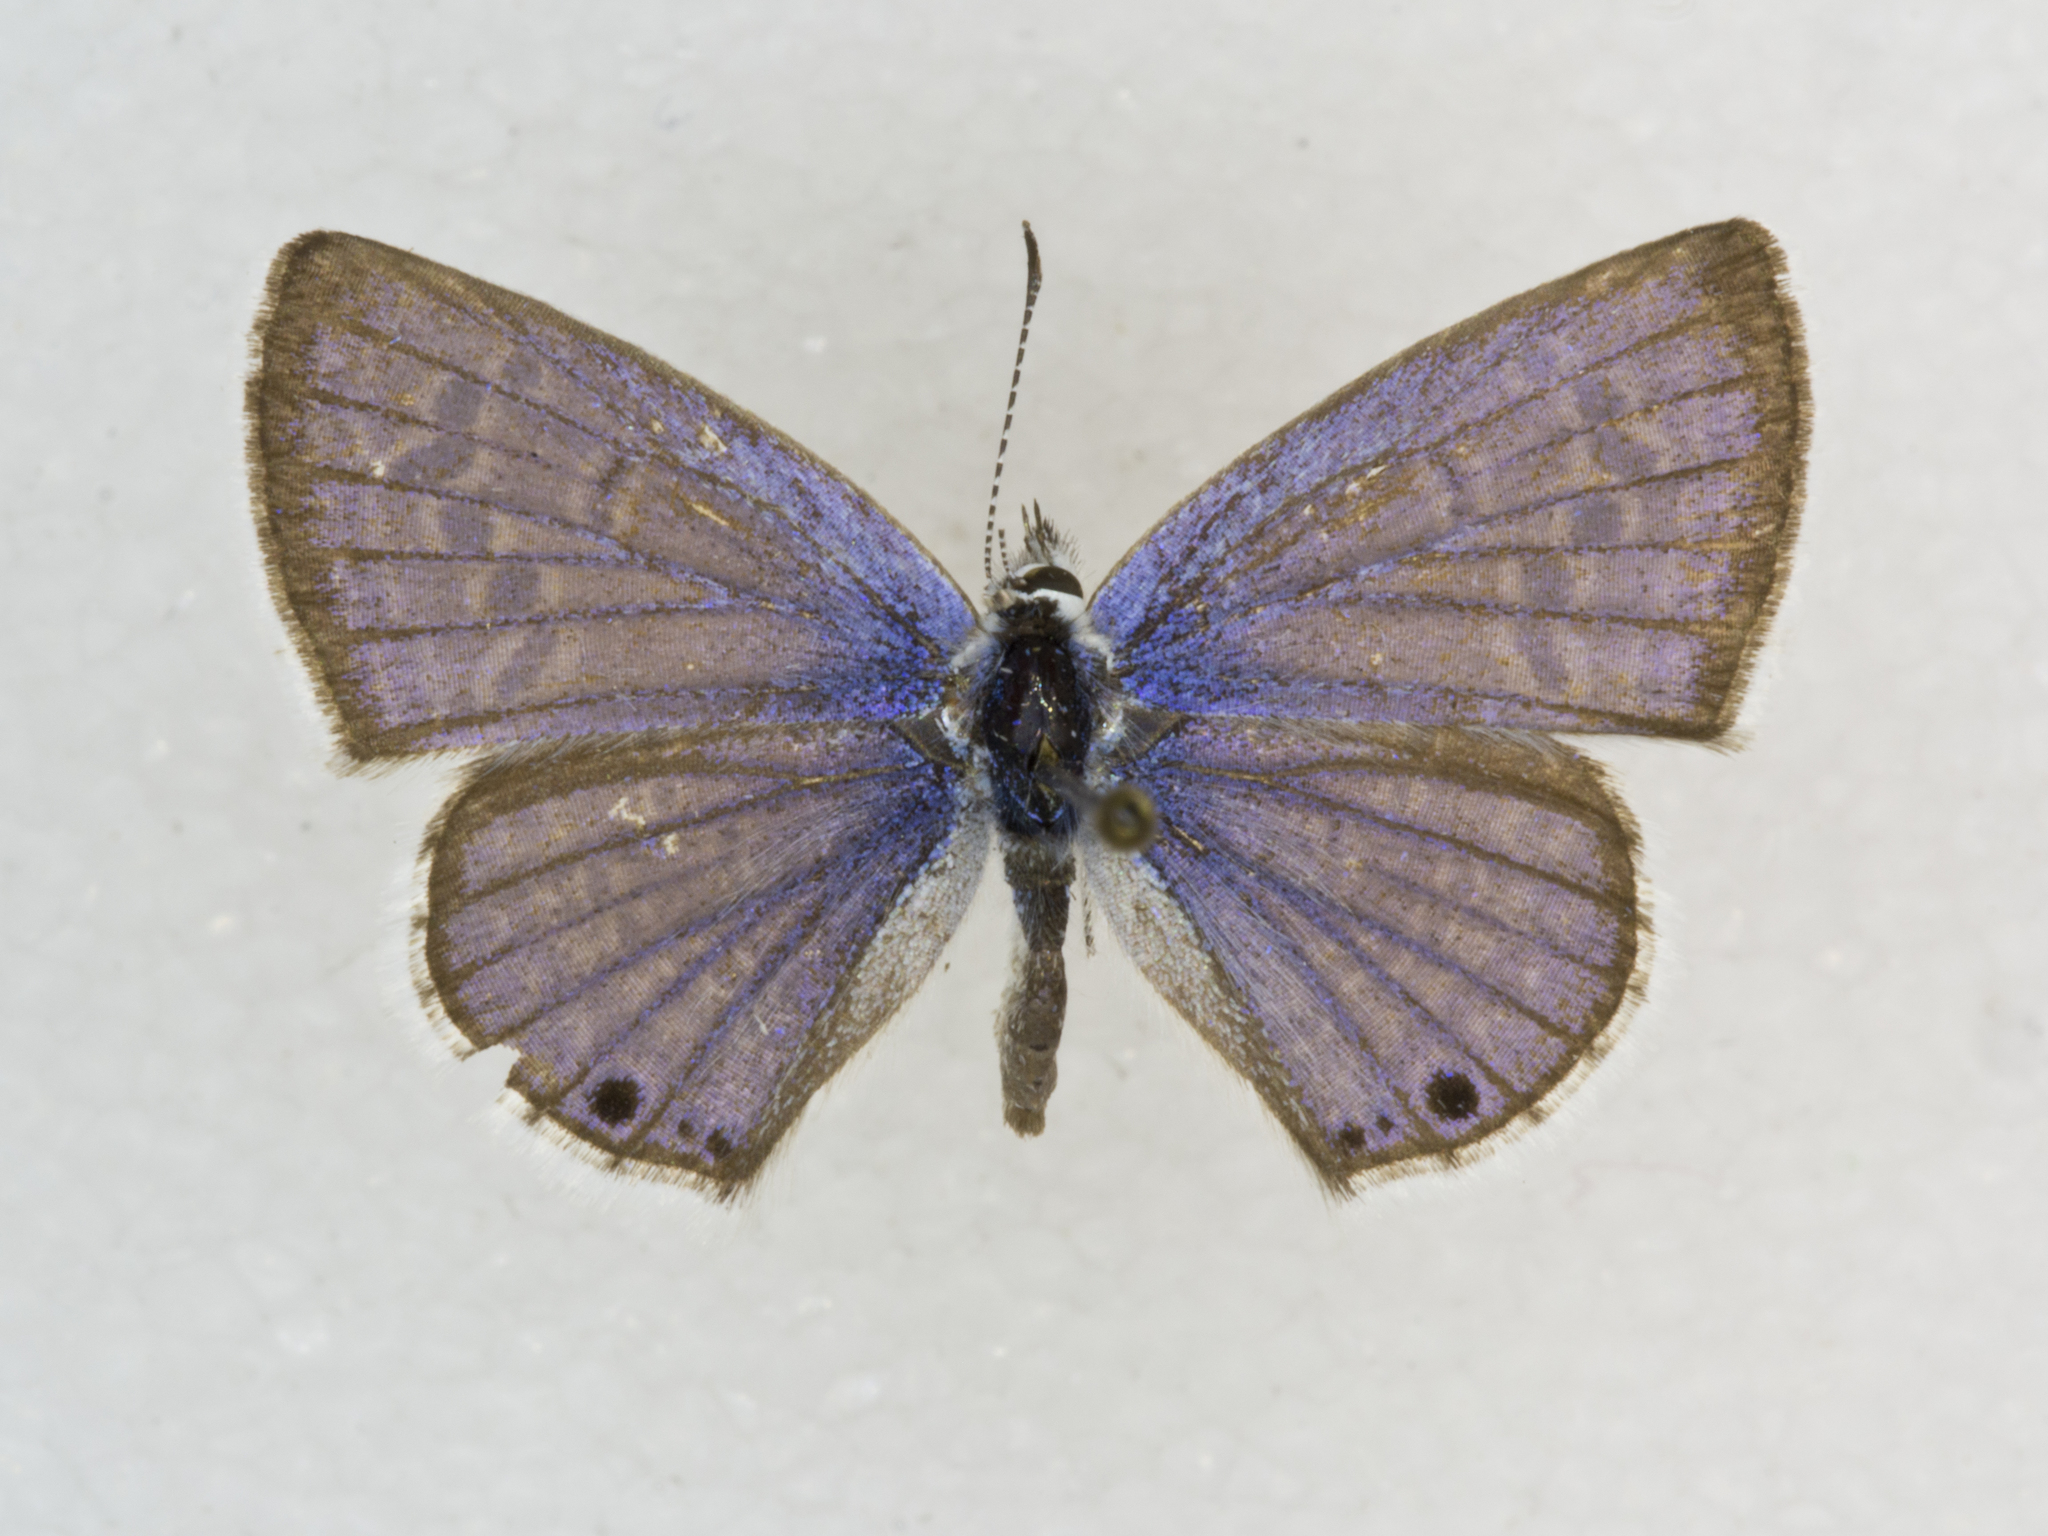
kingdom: Animalia
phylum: Arthropoda
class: Insecta
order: Lepidoptera
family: Lycaenidae
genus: Echinargus
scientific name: Echinargus isola
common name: Reakirt's blue
